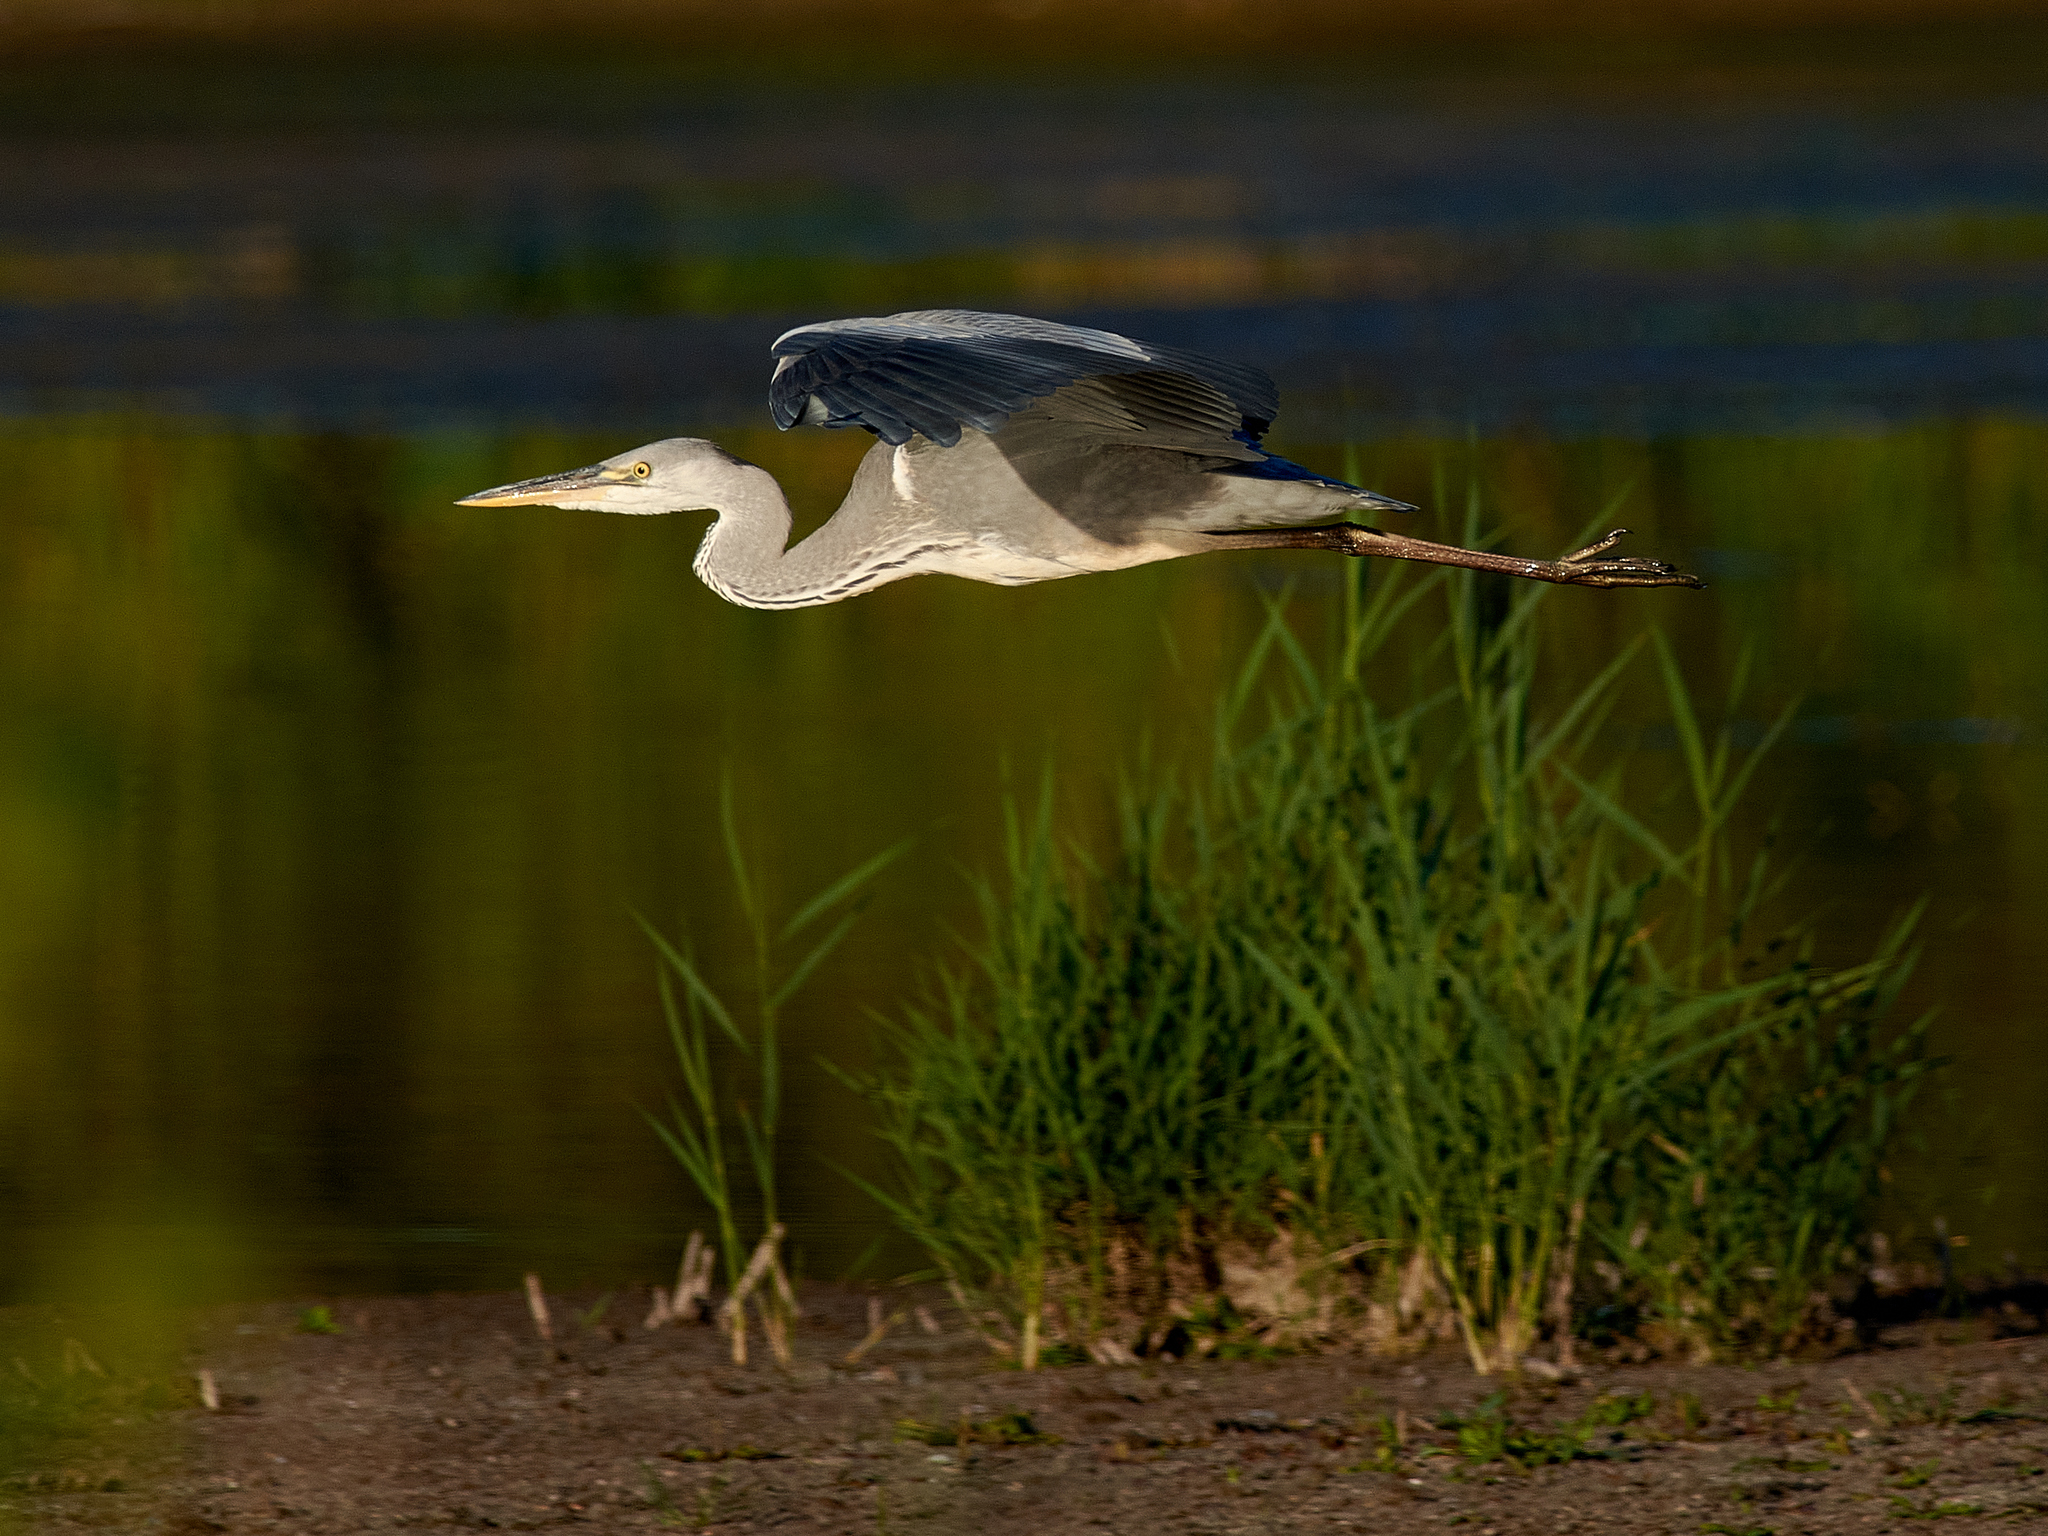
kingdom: Animalia
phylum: Chordata
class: Aves
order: Pelecaniformes
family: Ardeidae
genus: Ardea
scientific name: Ardea cinerea
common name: Grey heron
